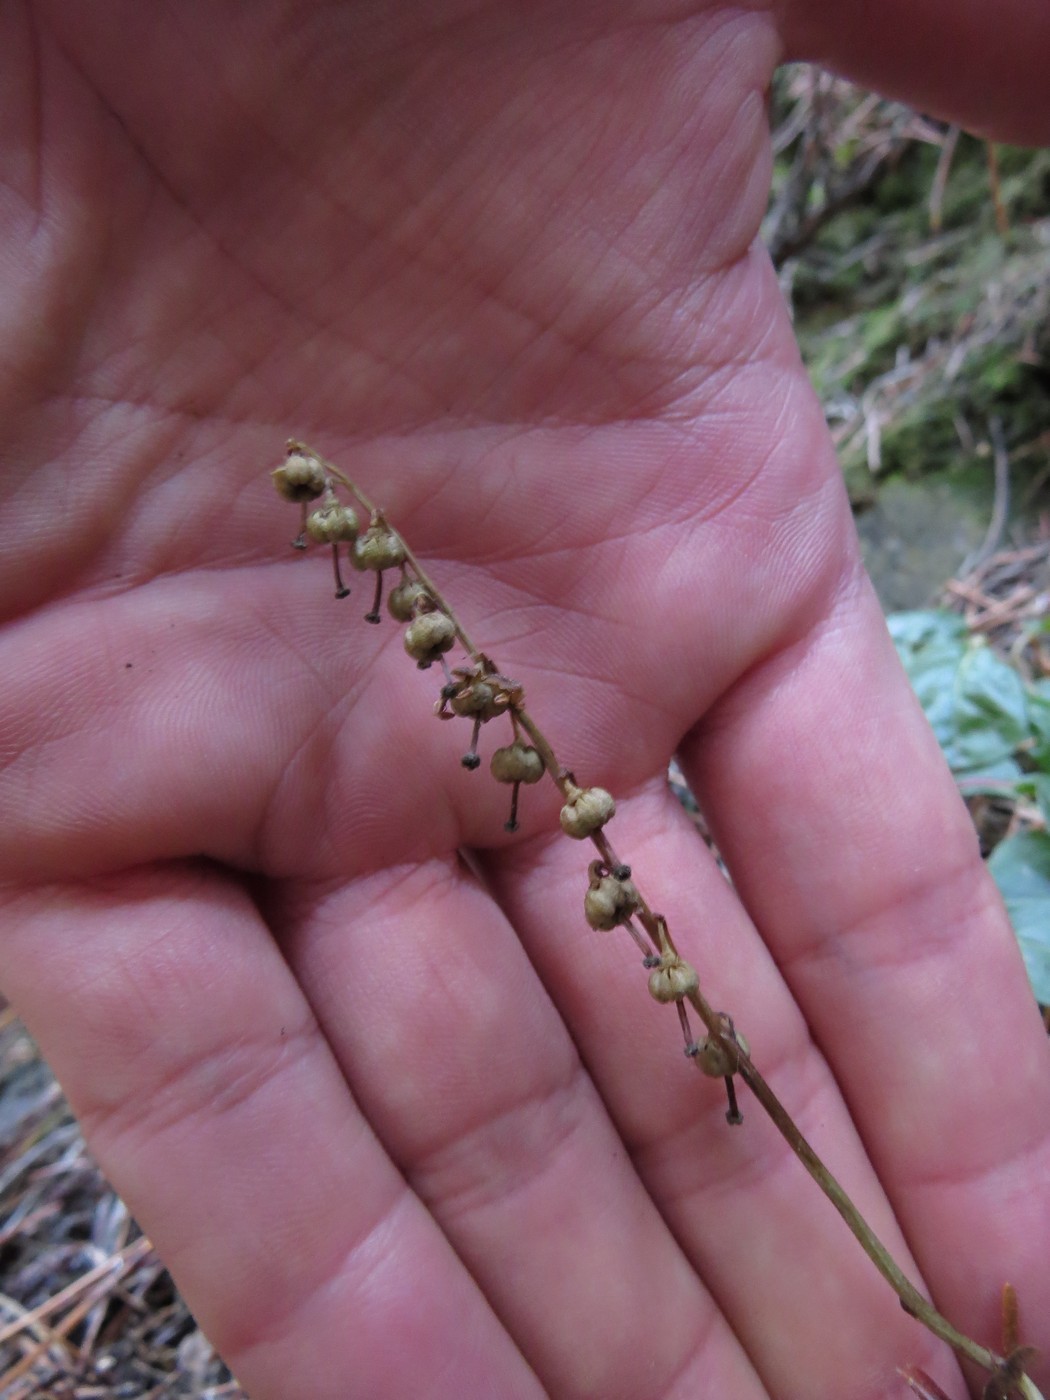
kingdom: Plantae
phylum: Tracheophyta
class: Magnoliopsida
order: Ericales
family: Ericaceae
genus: Orthilia
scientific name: Orthilia secunda
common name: One-sided orthilia
